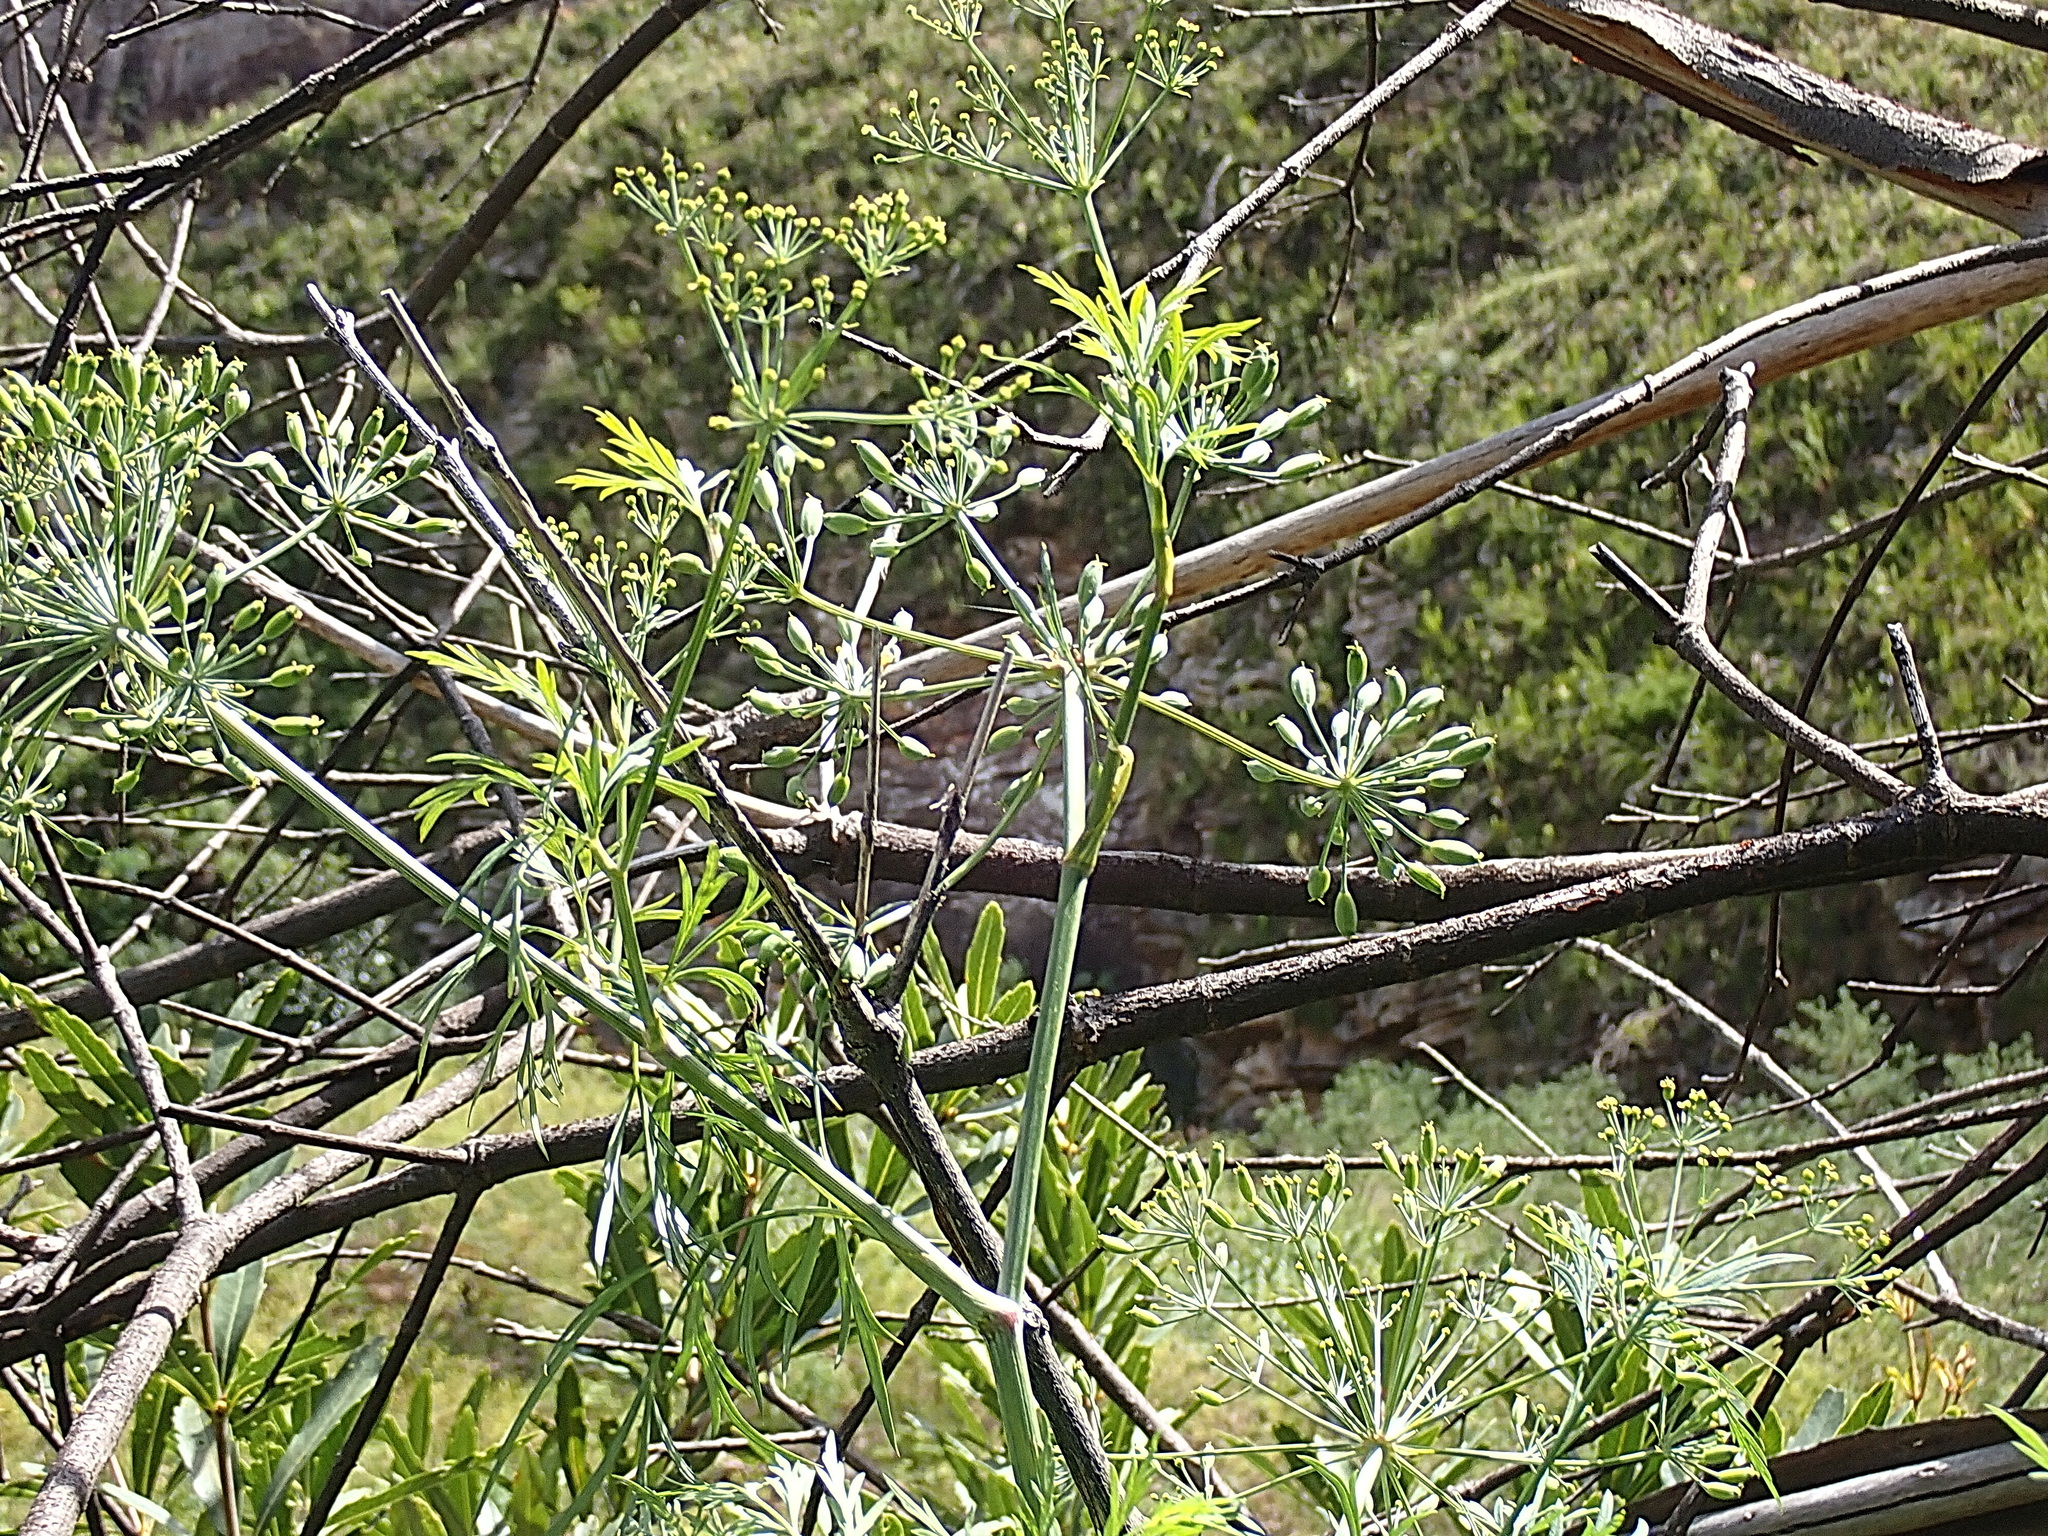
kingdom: Plantae
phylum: Tracheophyta
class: Magnoliopsida
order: Apiales
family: Apiaceae
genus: Notobubon
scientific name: Notobubon gummiferum
